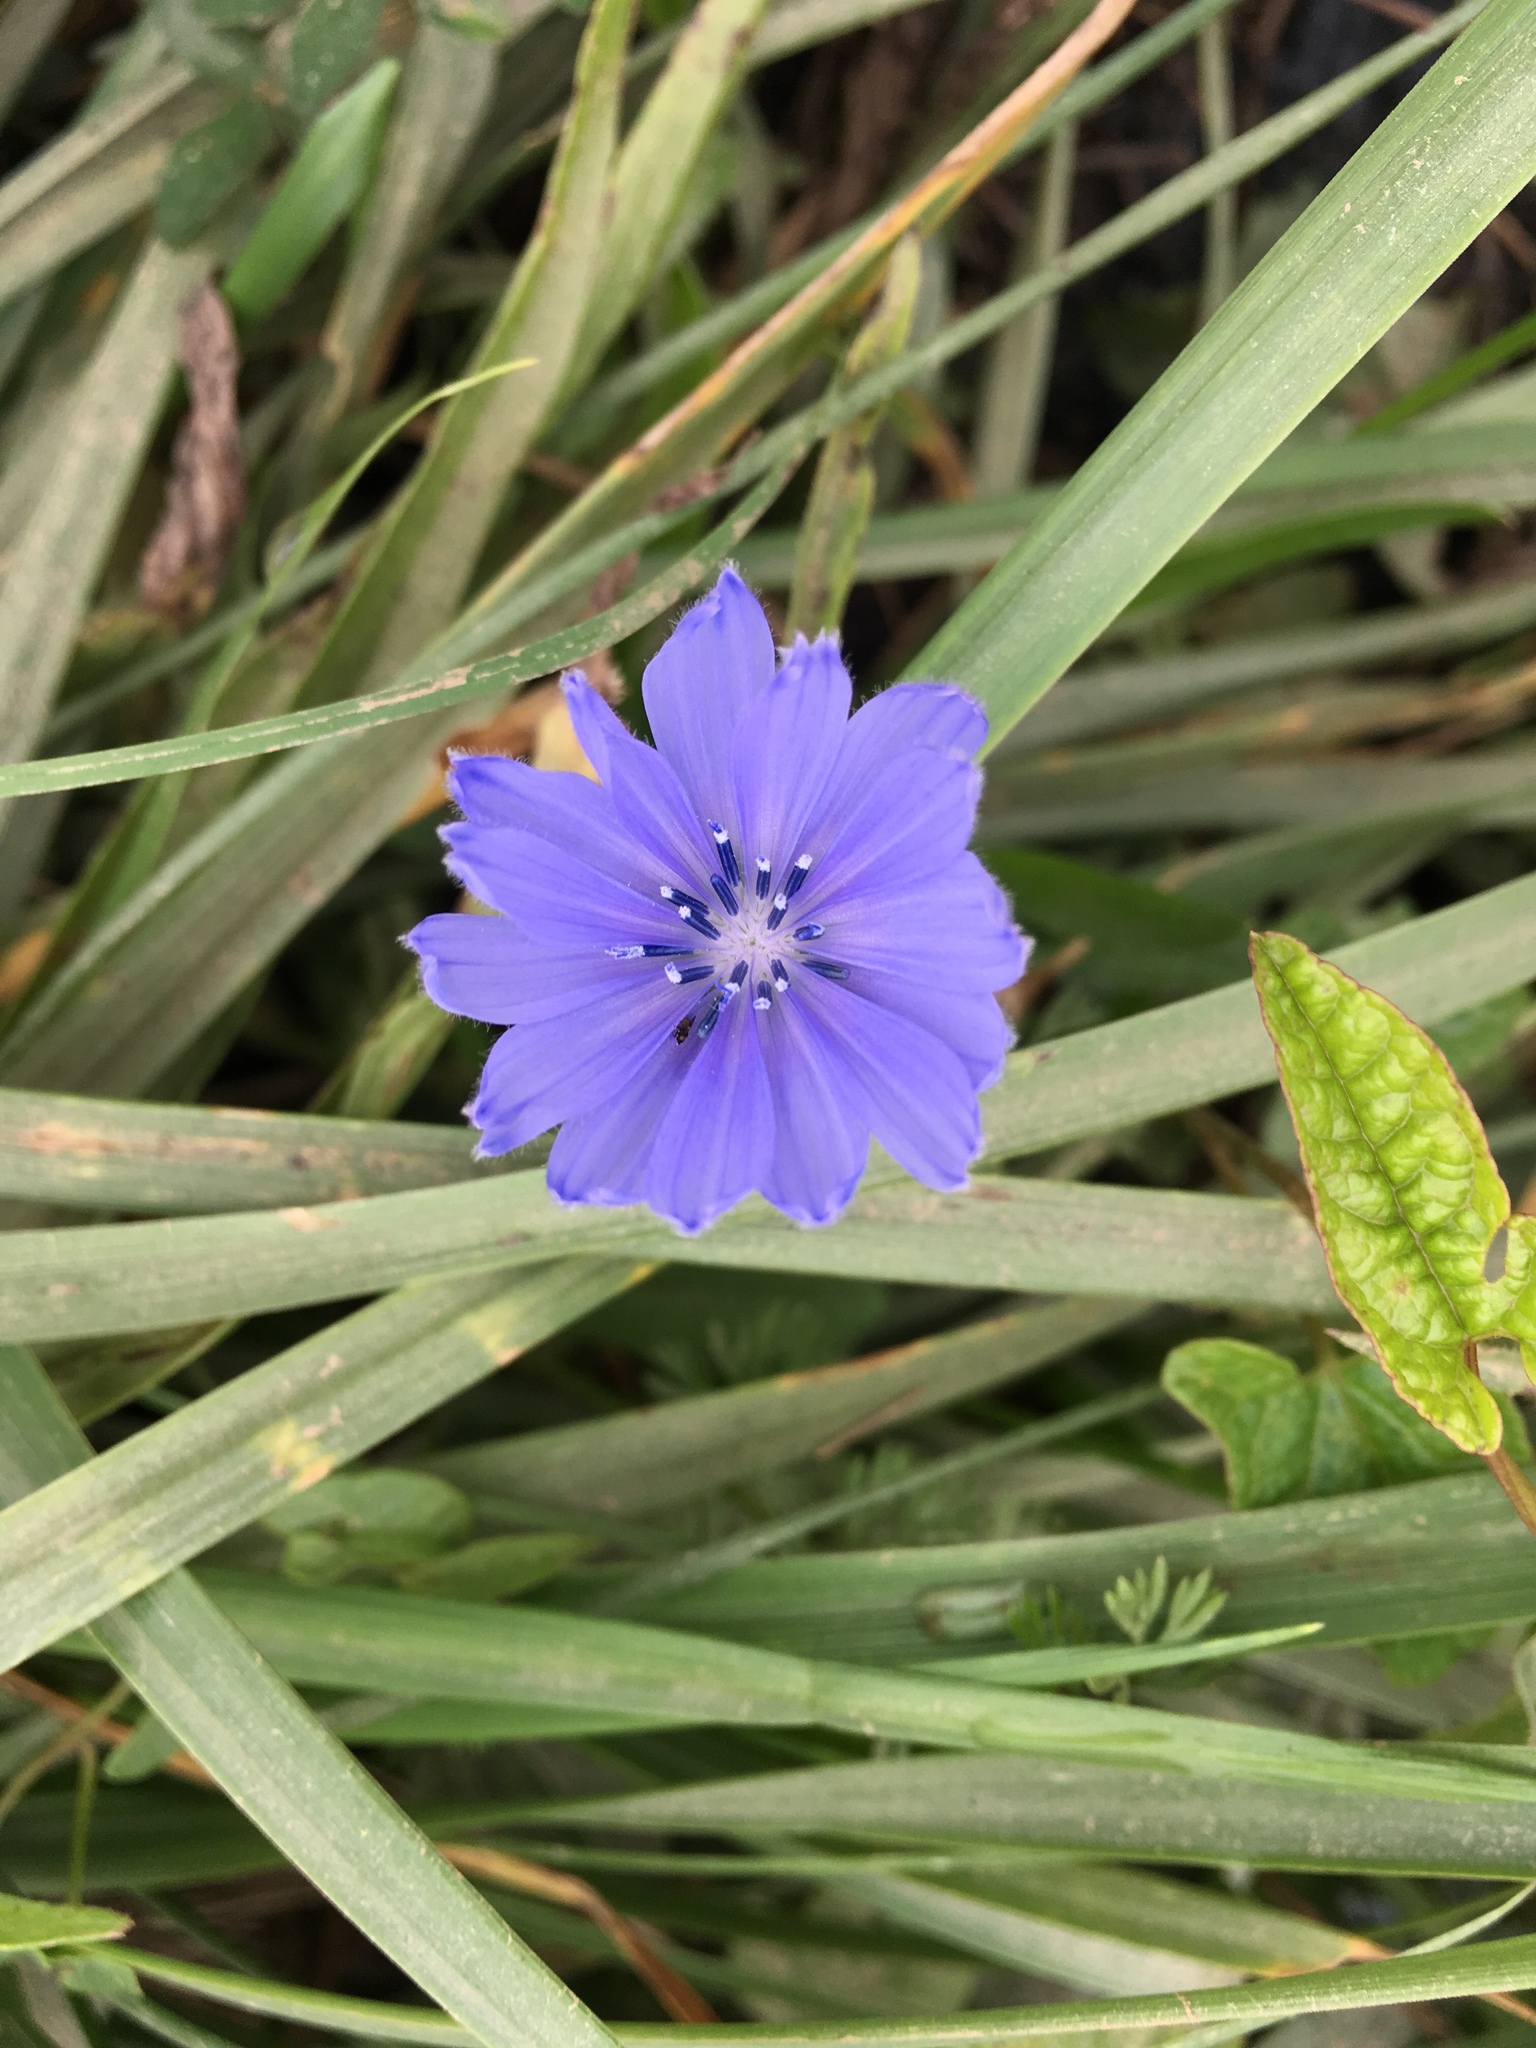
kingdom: Plantae
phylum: Tracheophyta
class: Magnoliopsida
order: Asterales
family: Asteraceae
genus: Cichorium
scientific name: Cichorium intybus
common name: Chicory
